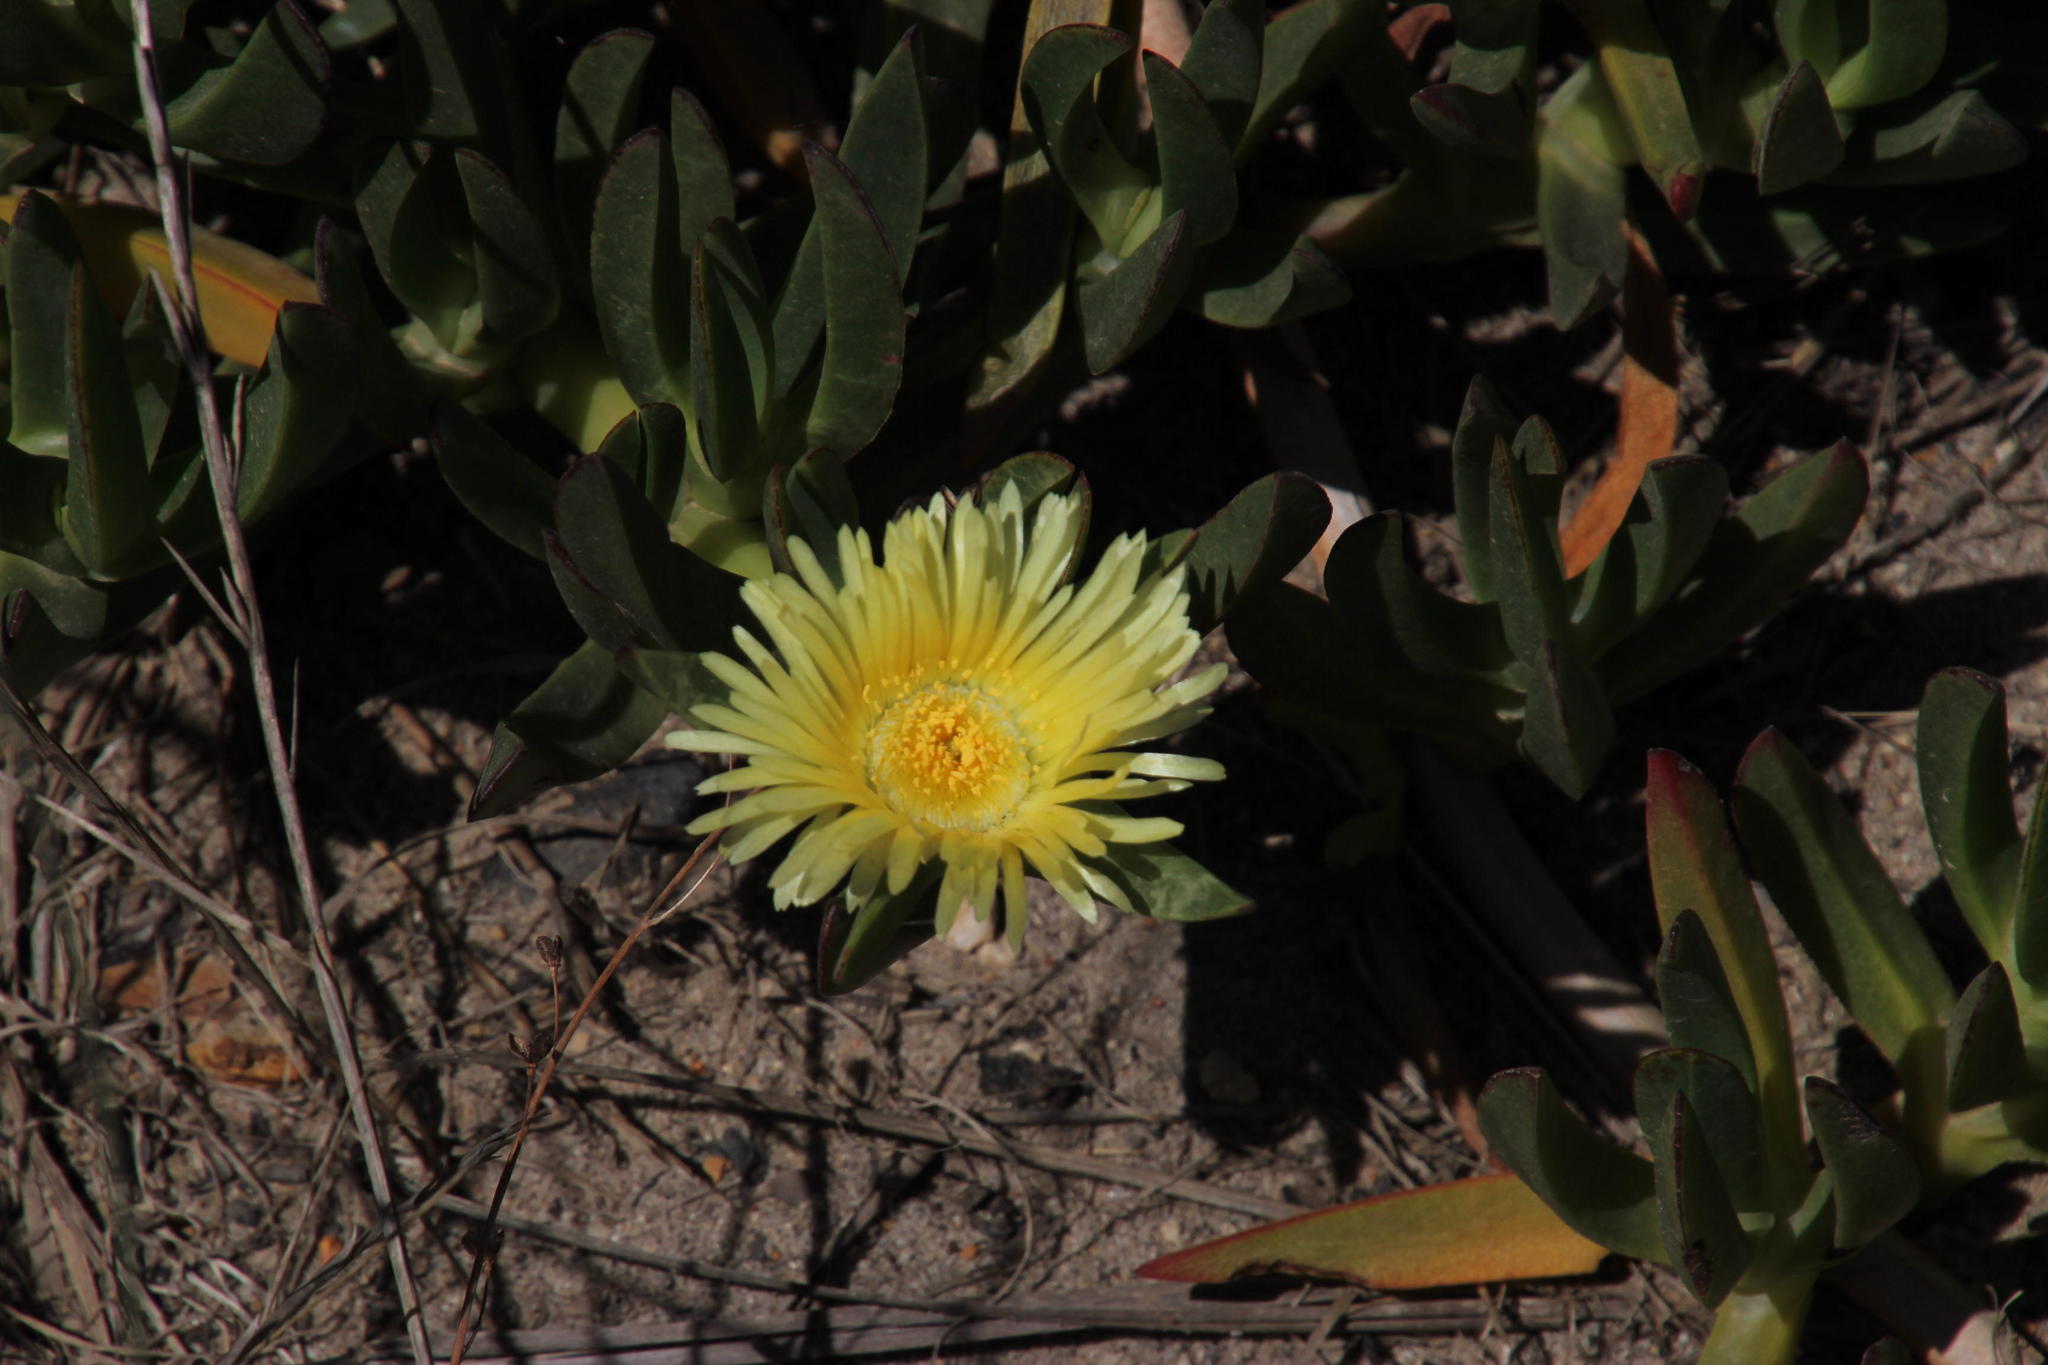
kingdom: Plantae
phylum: Tracheophyta
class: Magnoliopsida
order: Caryophyllales
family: Aizoaceae
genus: Carpobrotus
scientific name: Carpobrotus edulis
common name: Hottentot-fig
